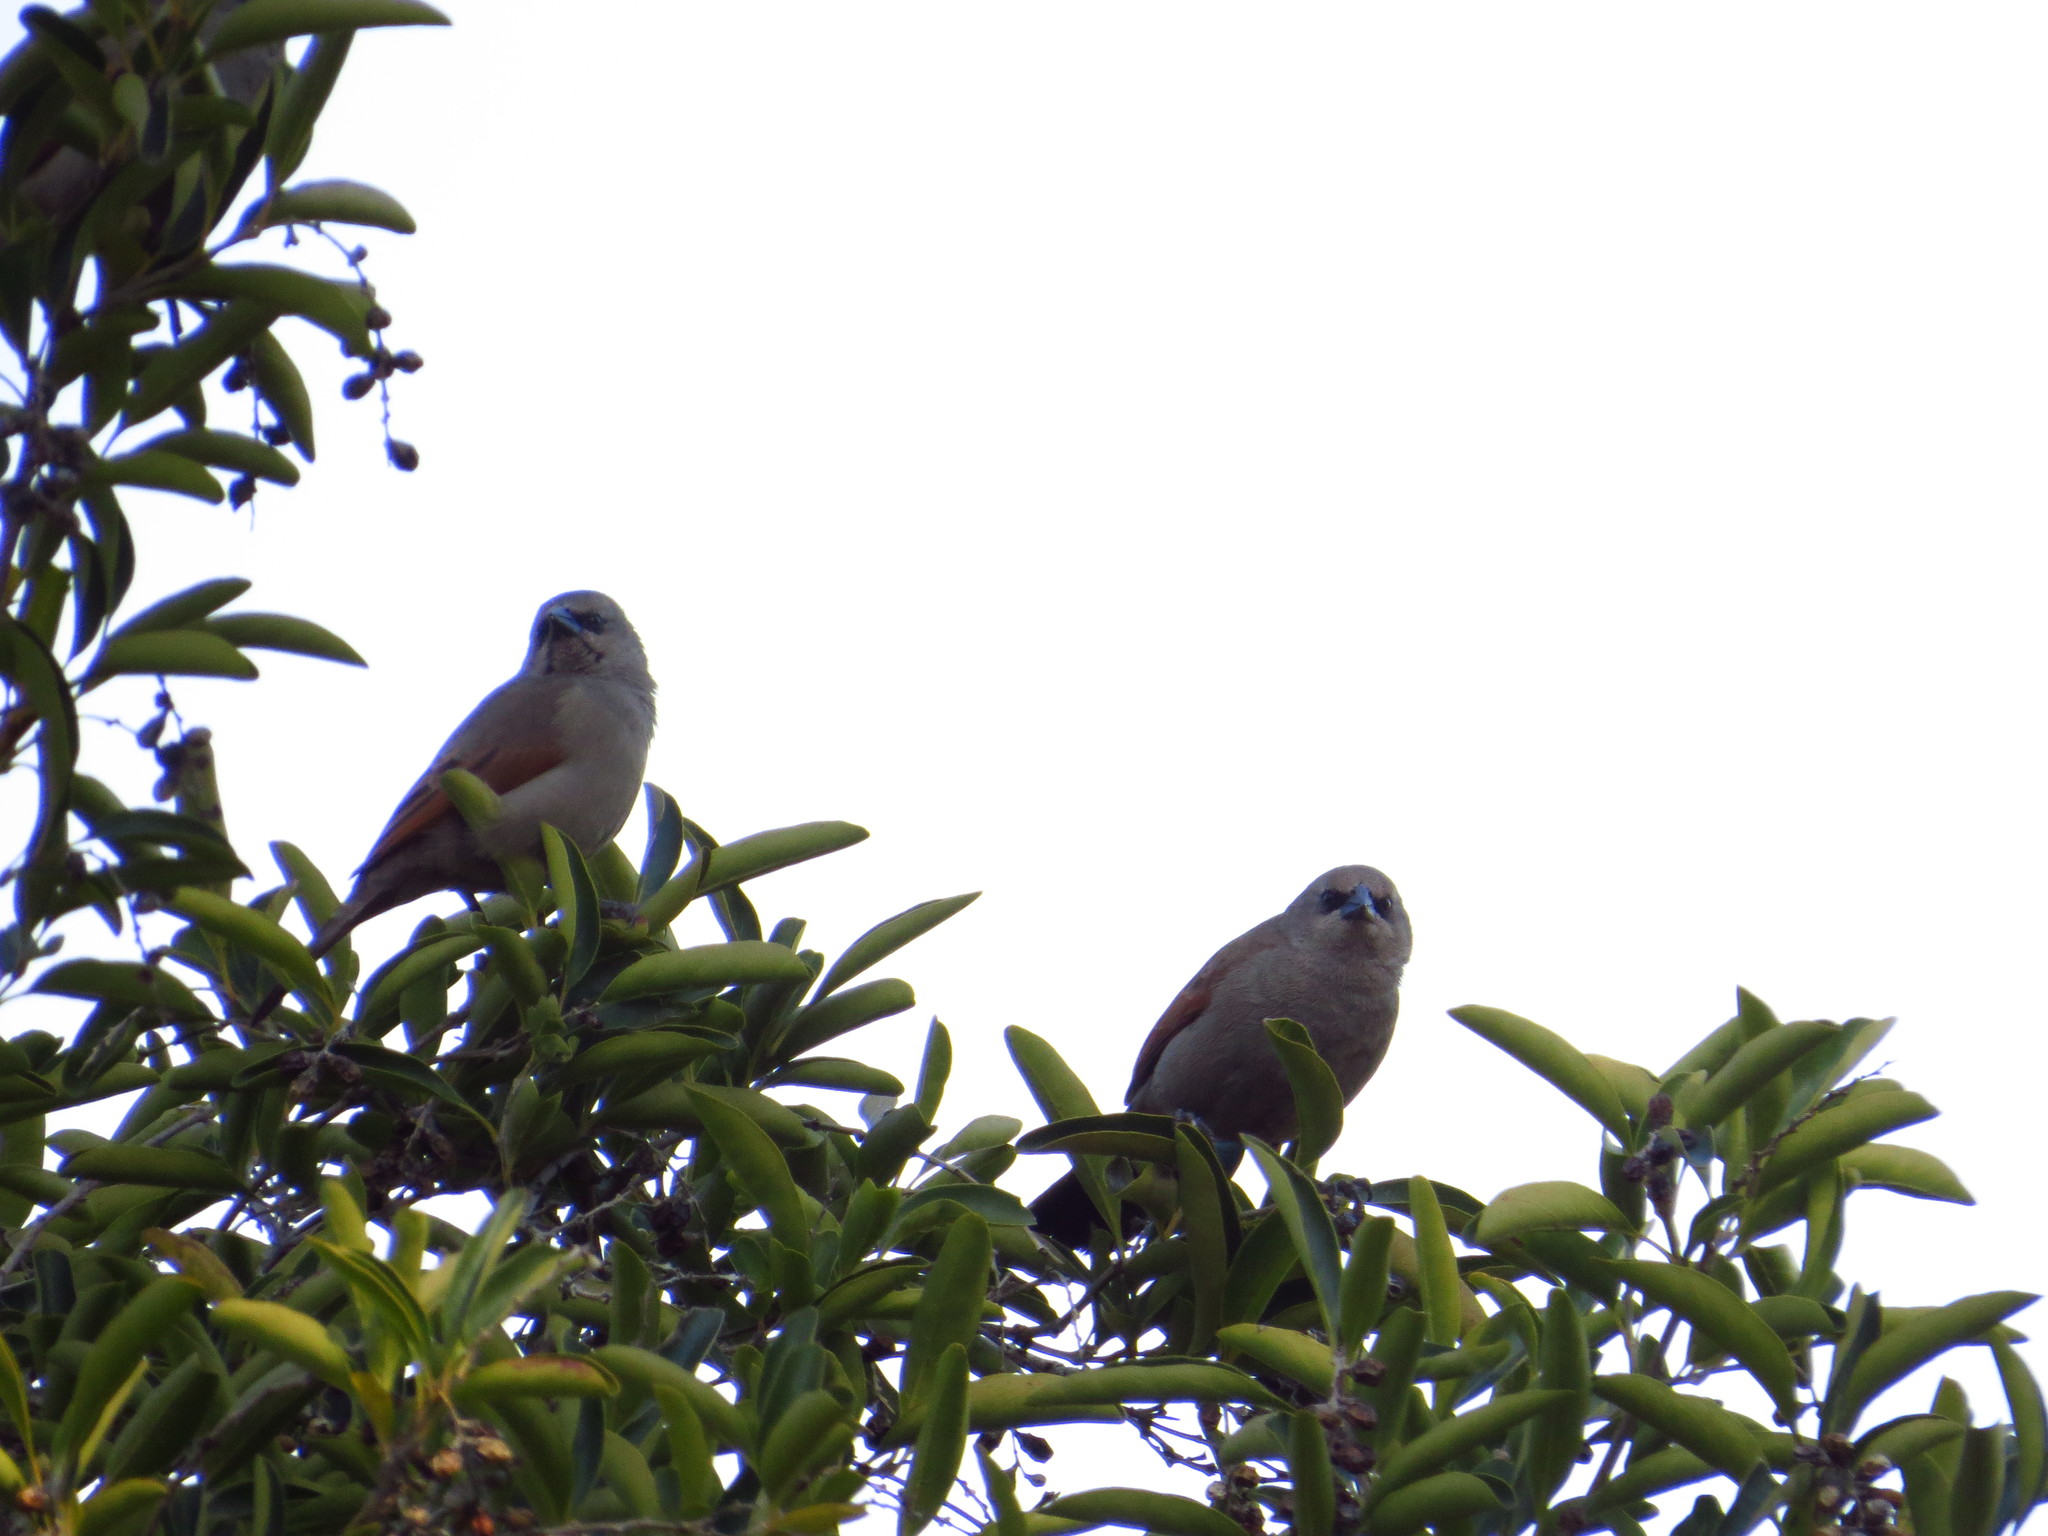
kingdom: Animalia
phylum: Chordata
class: Aves
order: Passeriformes
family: Icteridae
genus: Agelaioides
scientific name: Agelaioides badius
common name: Baywing
